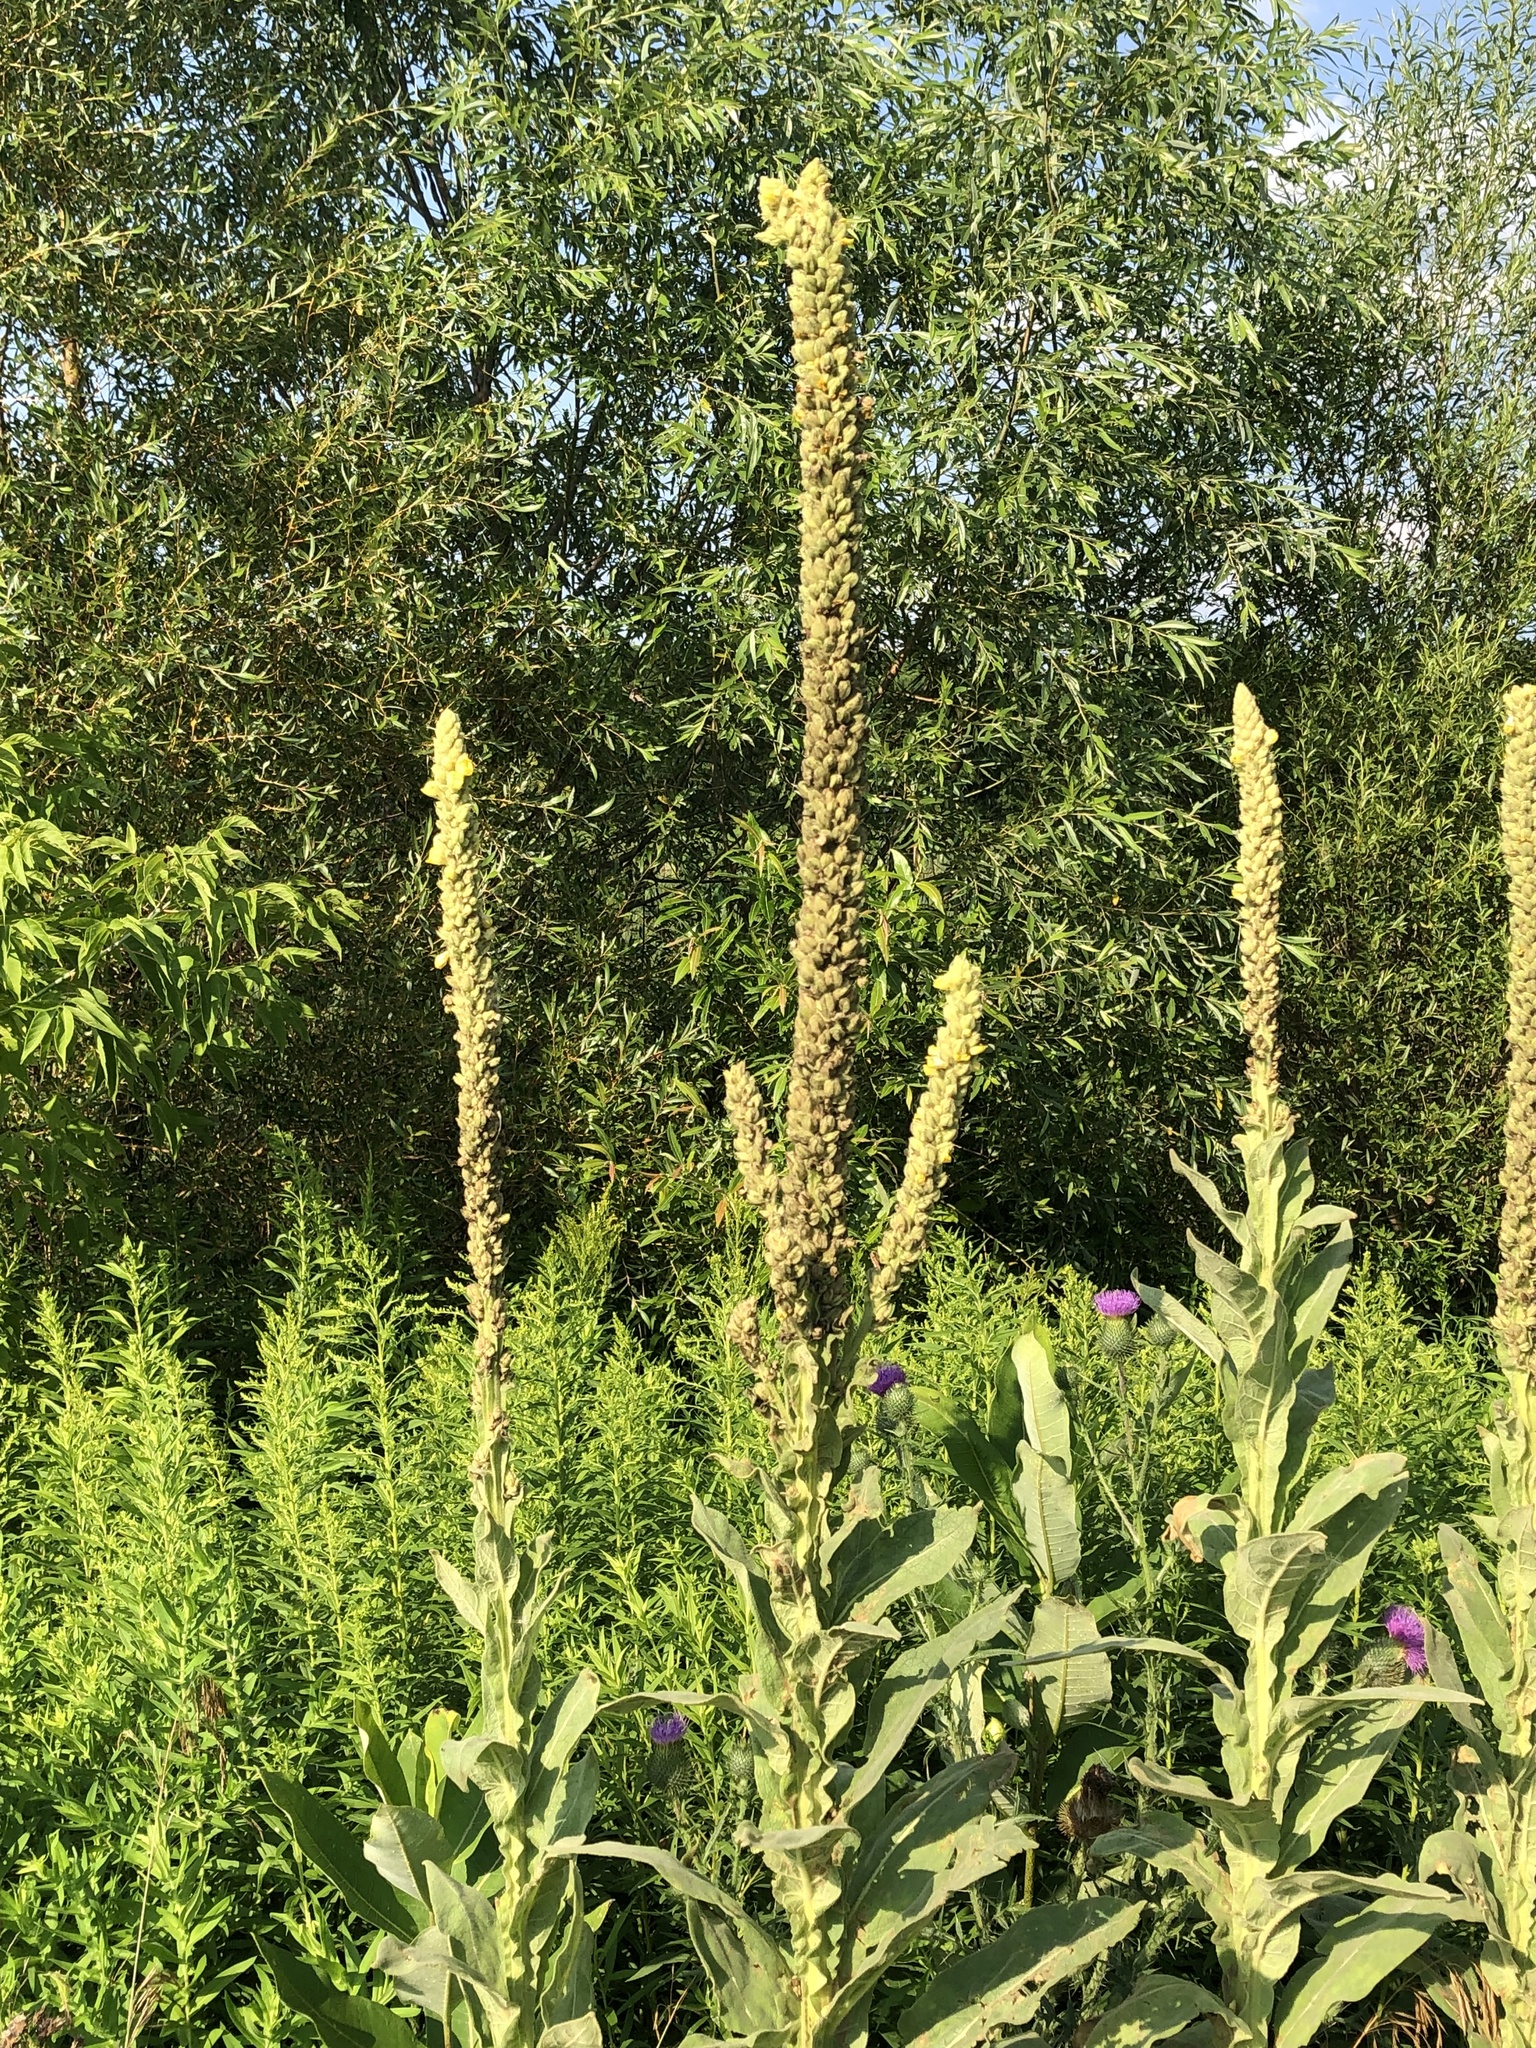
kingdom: Plantae
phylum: Tracheophyta
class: Magnoliopsida
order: Lamiales
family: Scrophulariaceae
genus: Verbascum
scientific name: Verbascum thapsus
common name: Common mullein
